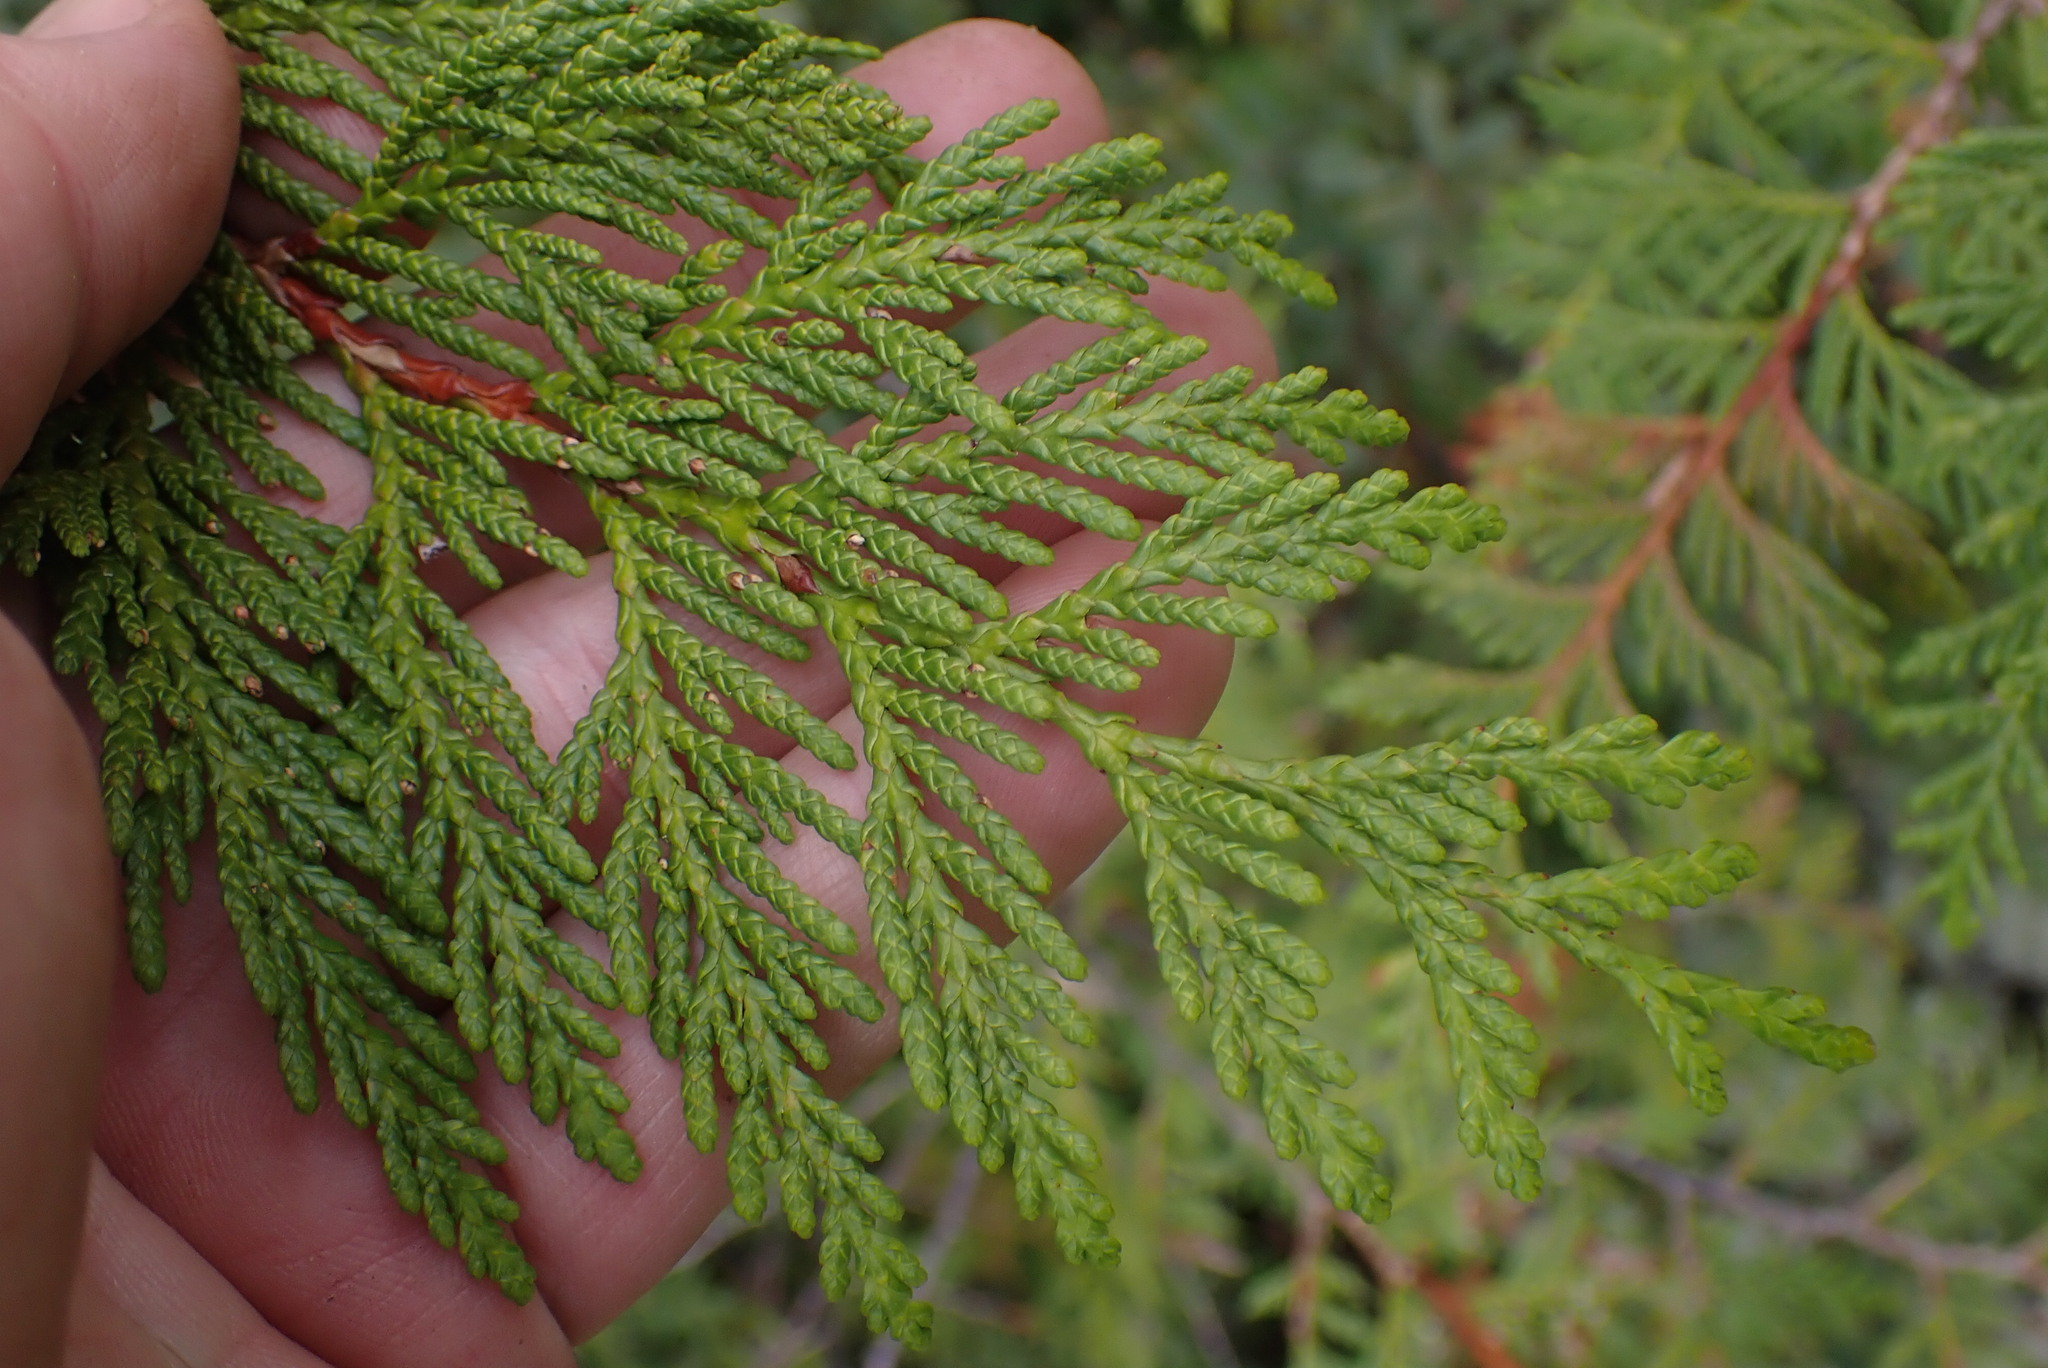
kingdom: Plantae
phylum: Tracheophyta
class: Pinopsida
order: Pinales
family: Cupressaceae
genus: Xanthocyparis
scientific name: Xanthocyparis nootkatensis
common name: Nootka cypress
